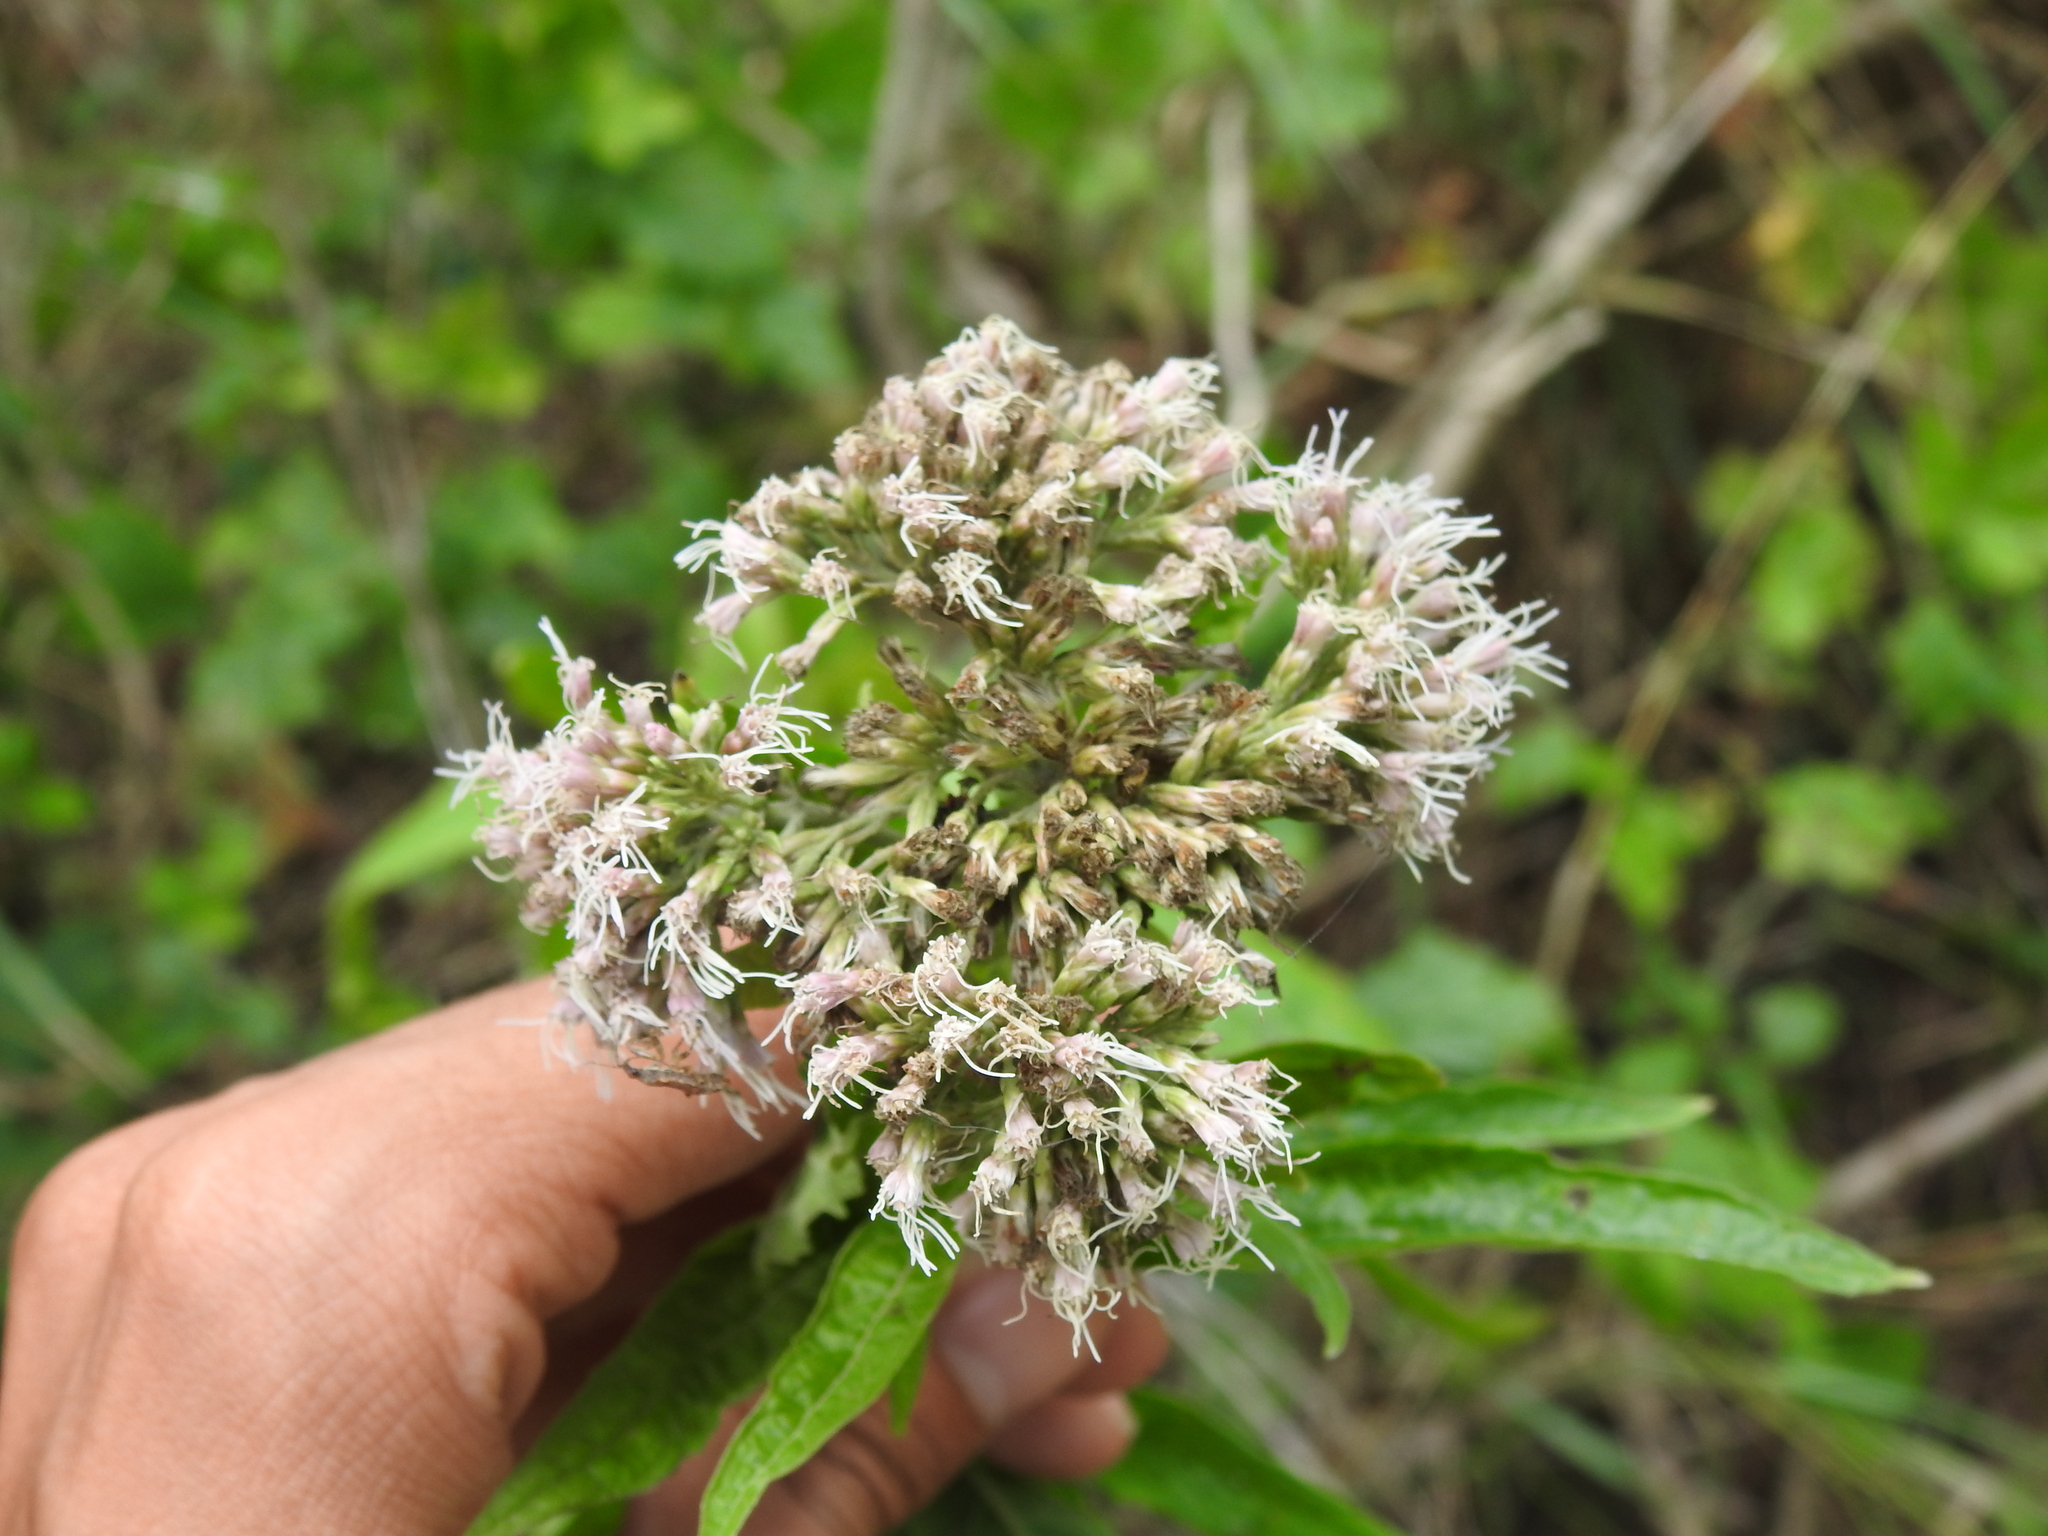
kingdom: Plantae
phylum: Tracheophyta
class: Magnoliopsida
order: Asterales
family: Asteraceae
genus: Eupatorium
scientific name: Eupatorium cannabinum
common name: Hemp-agrimony
